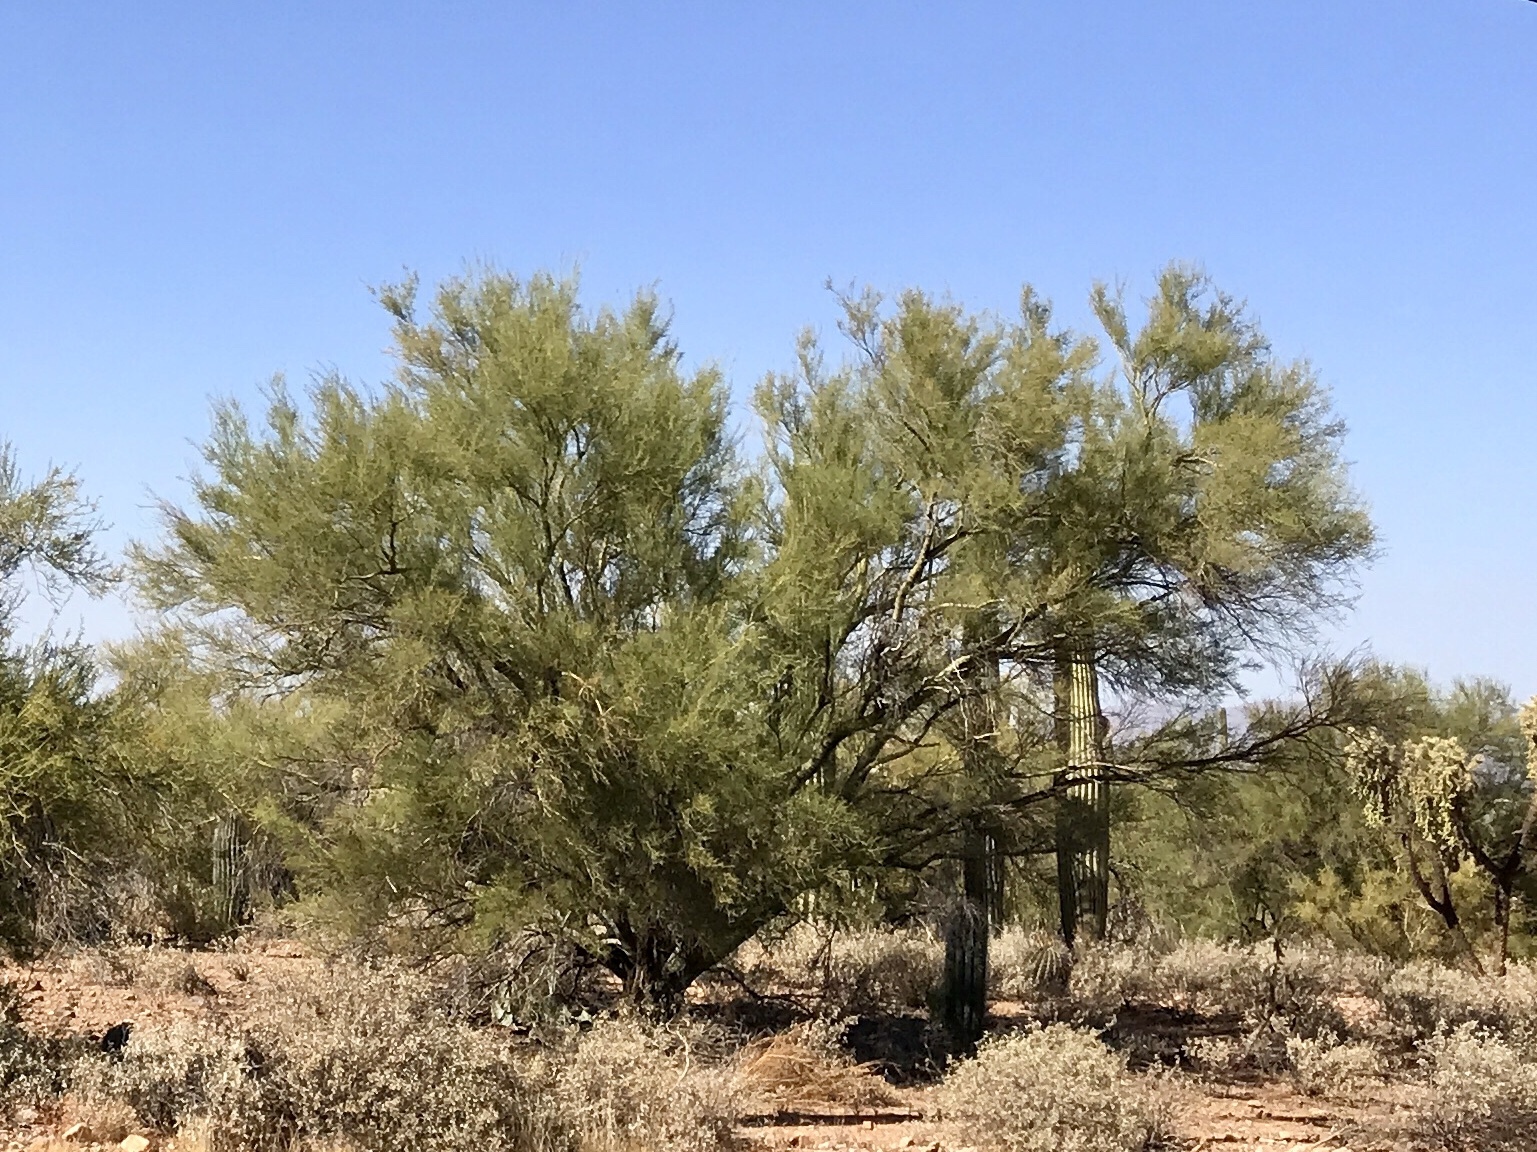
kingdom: Plantae
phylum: Tracheophyta
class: Magnoliopsida
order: Fabales
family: Fabaceae
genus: Parkinsonia
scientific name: Parkinsonia microphylla
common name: Yellow paloverde
